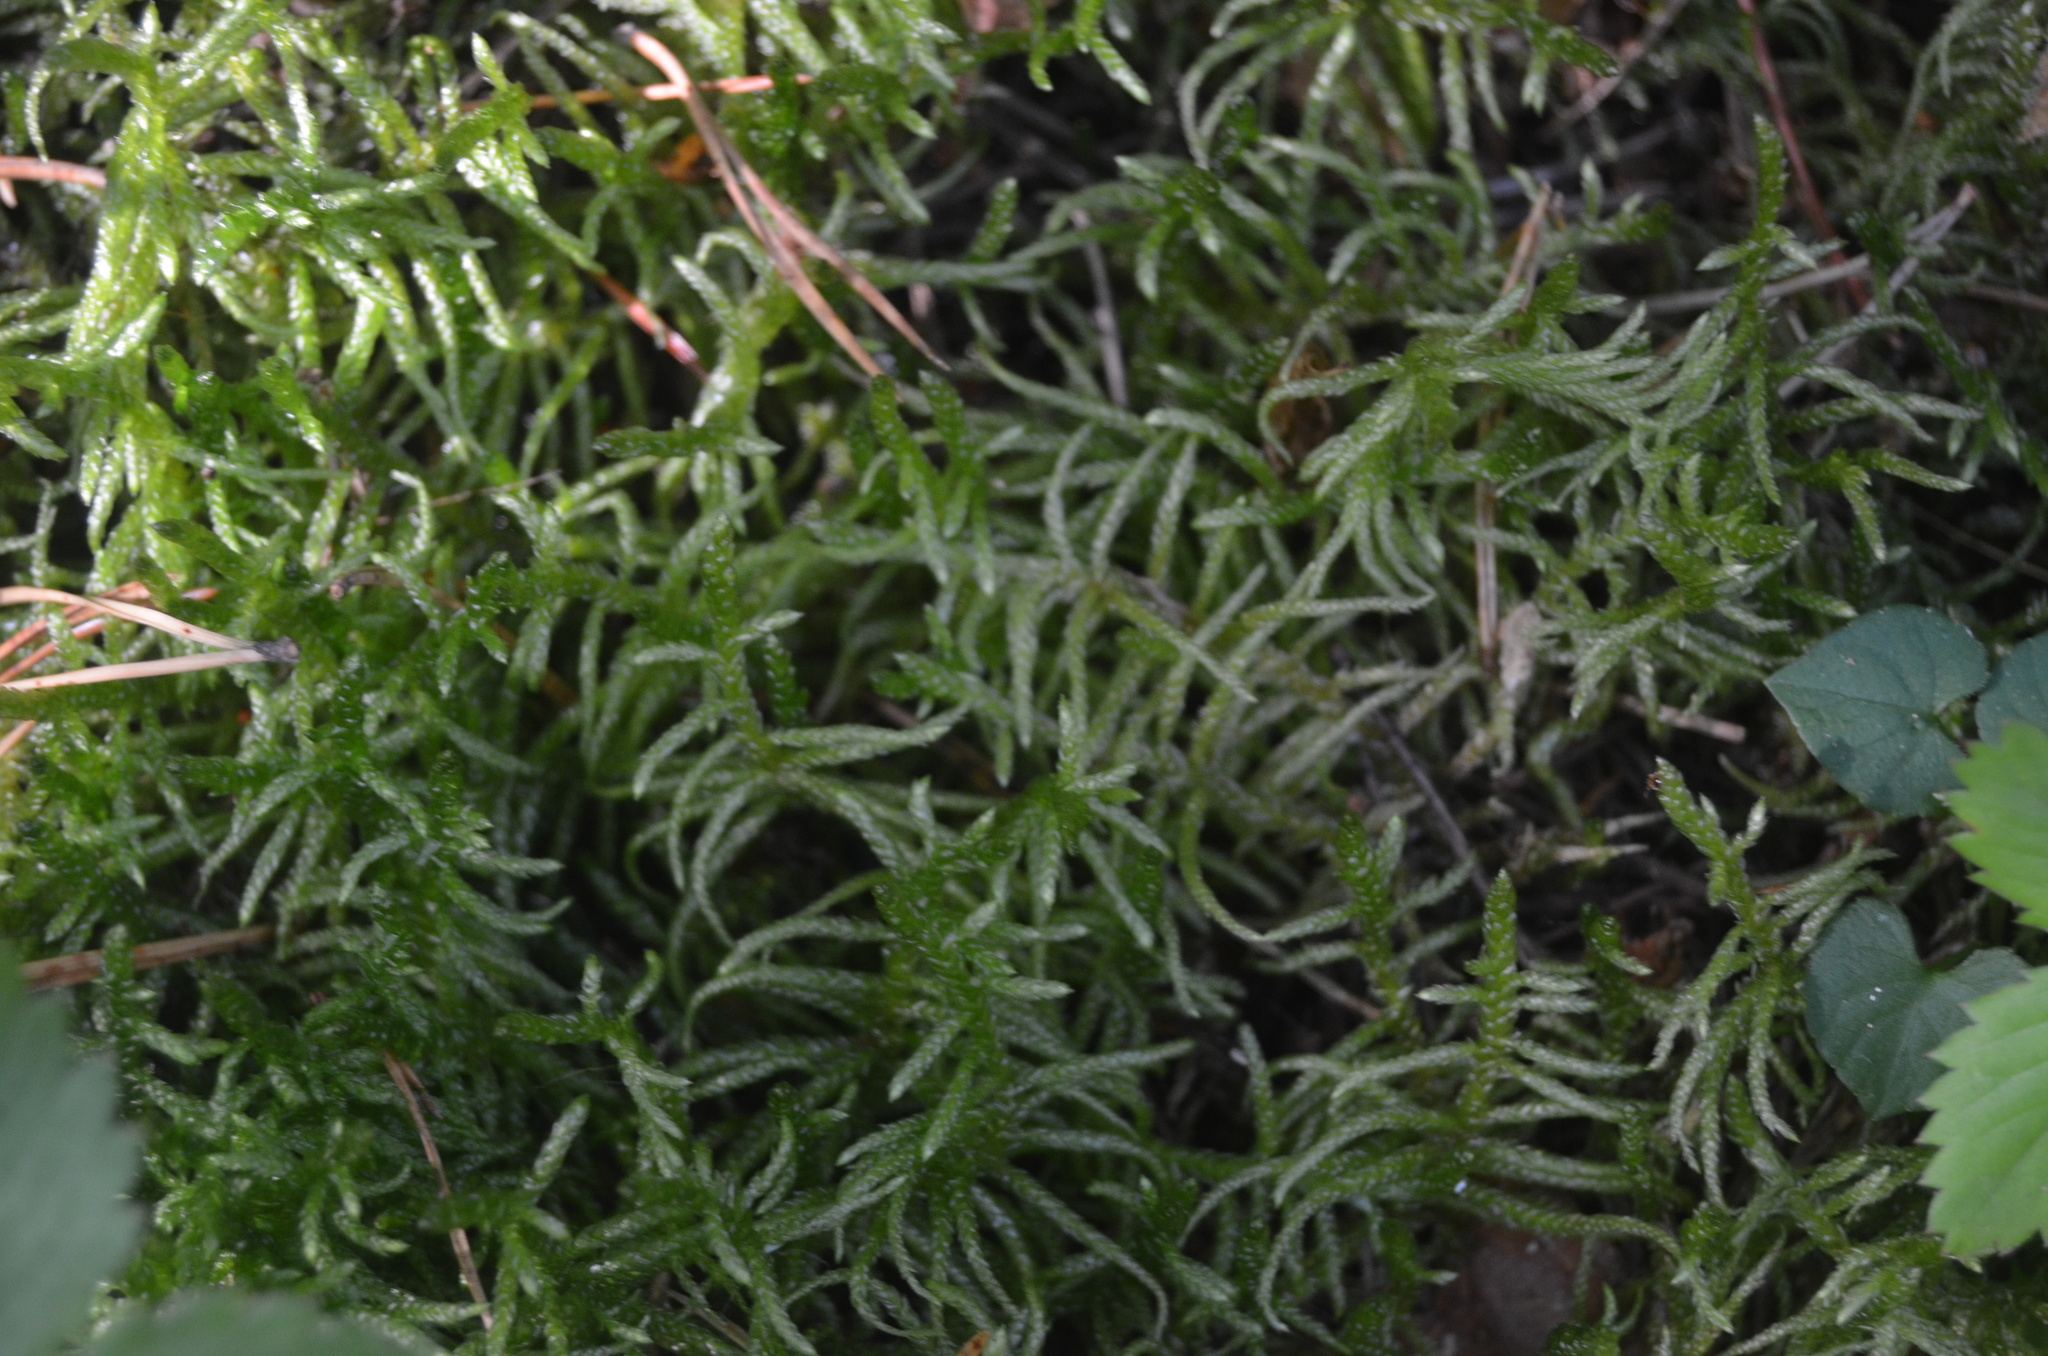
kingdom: Plantae
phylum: Bryophyta
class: Bryopsida
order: Hypnales
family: Brachytheciaceae
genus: Pseudoscleropodium
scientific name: Pseudoscleropodium purum
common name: Neat feather-moss
